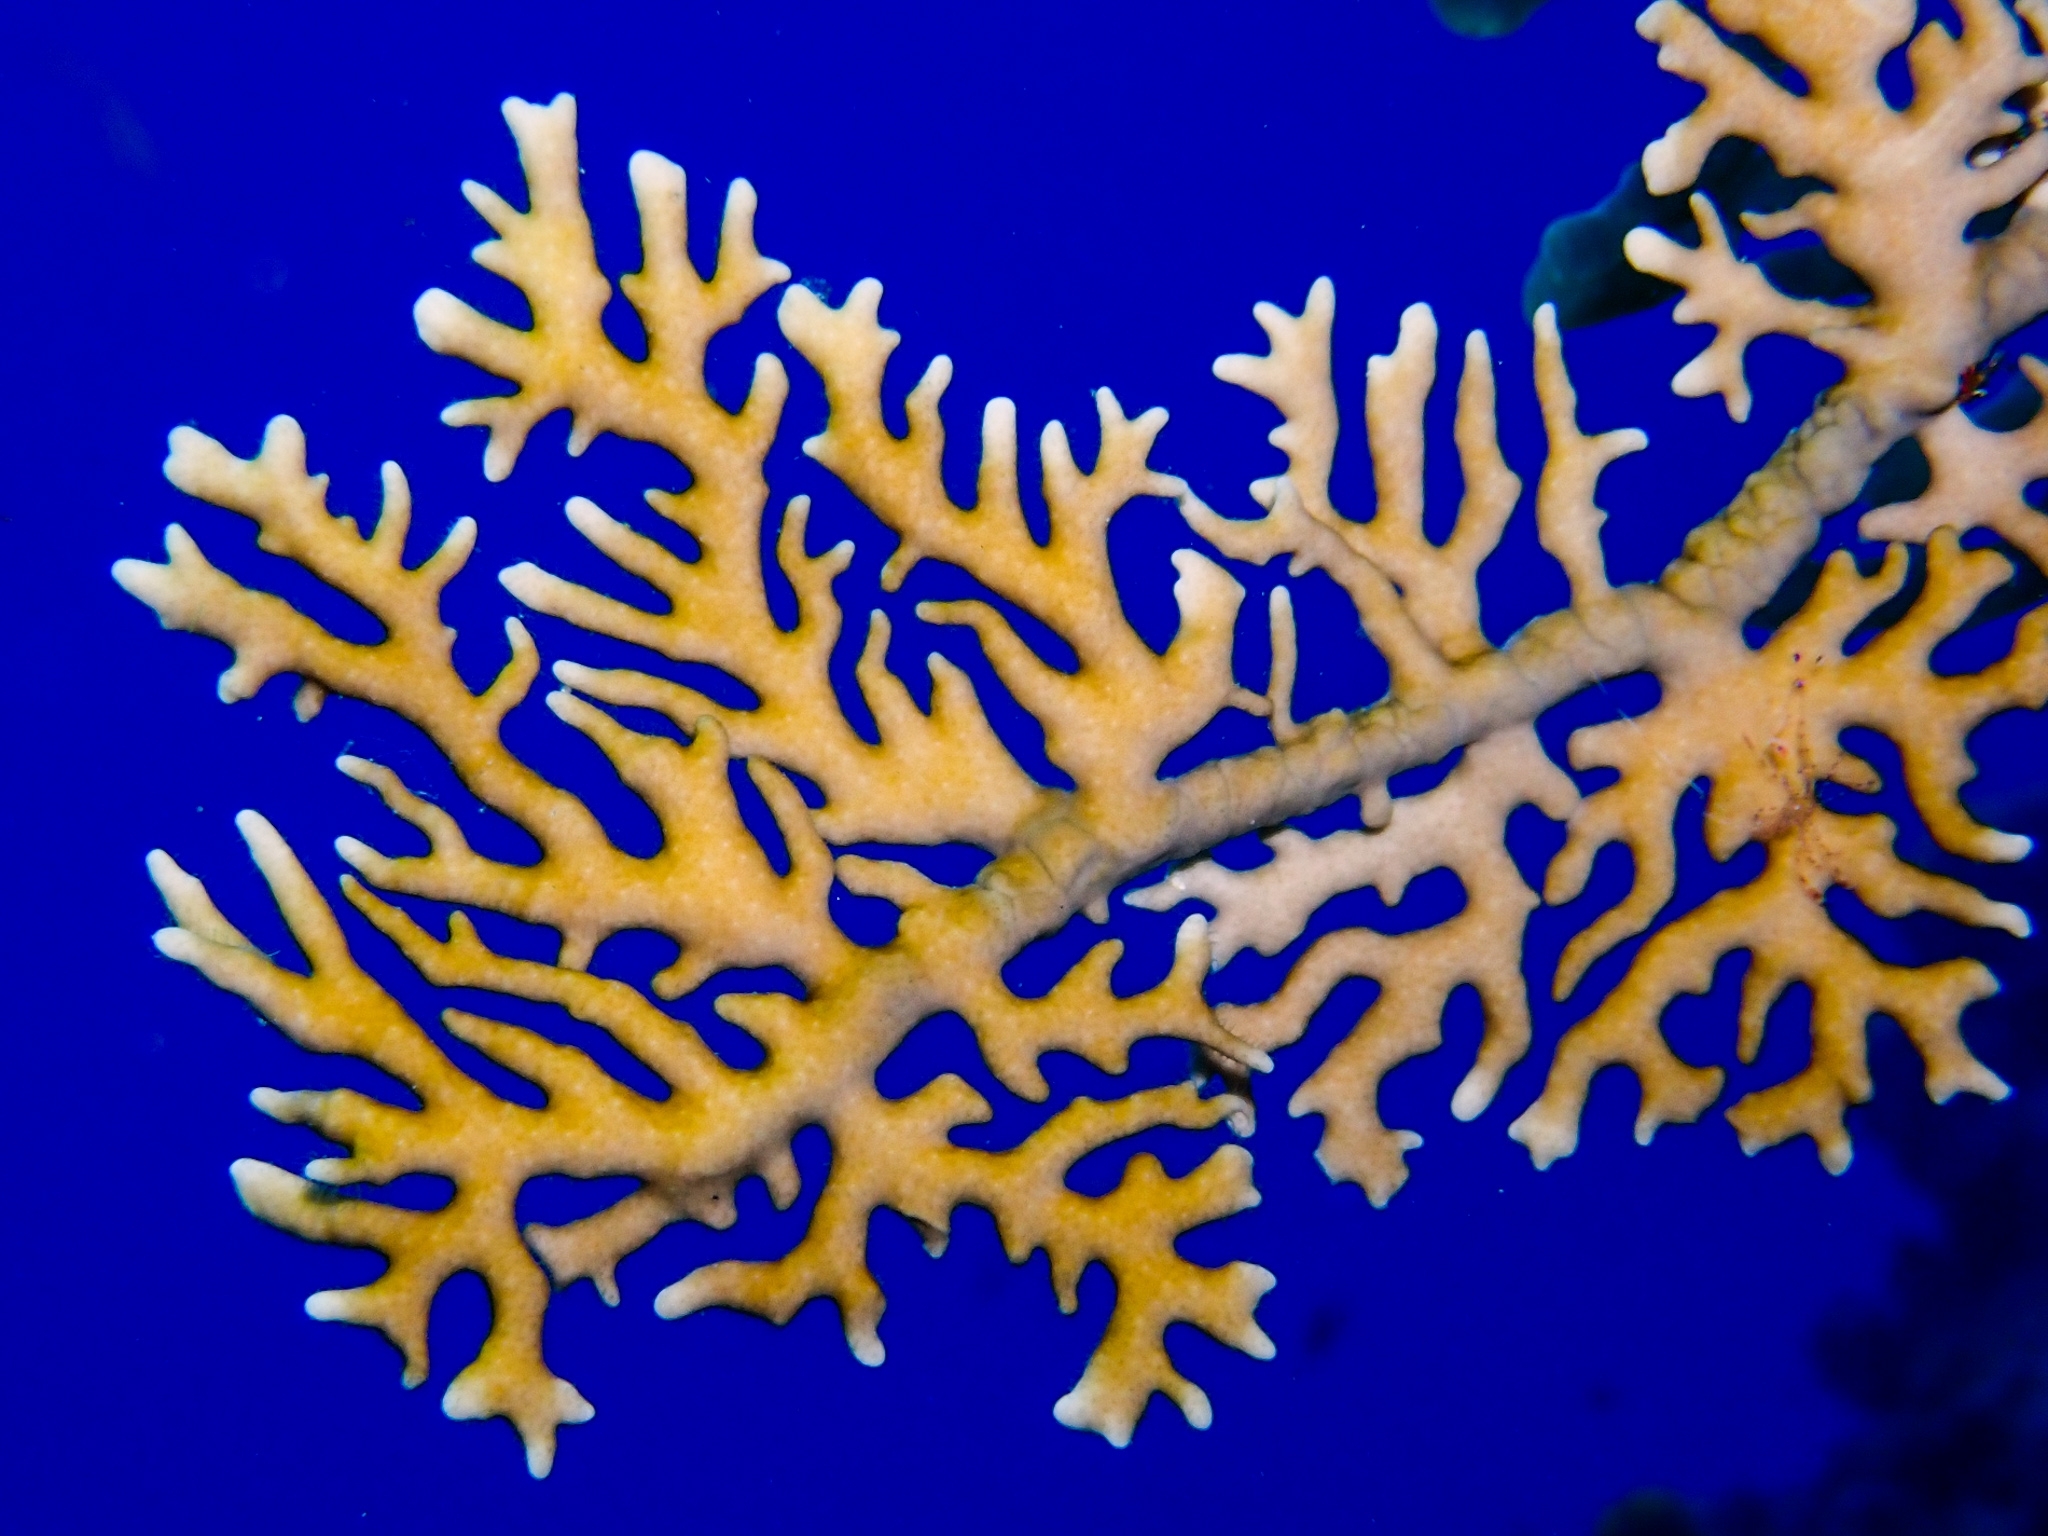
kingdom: Animalia
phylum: Cnidaria
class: Hydrozoa
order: Anthoathecata
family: Milleporidae
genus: Millepora
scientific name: Millepora alcicornis
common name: Branching fire coral
